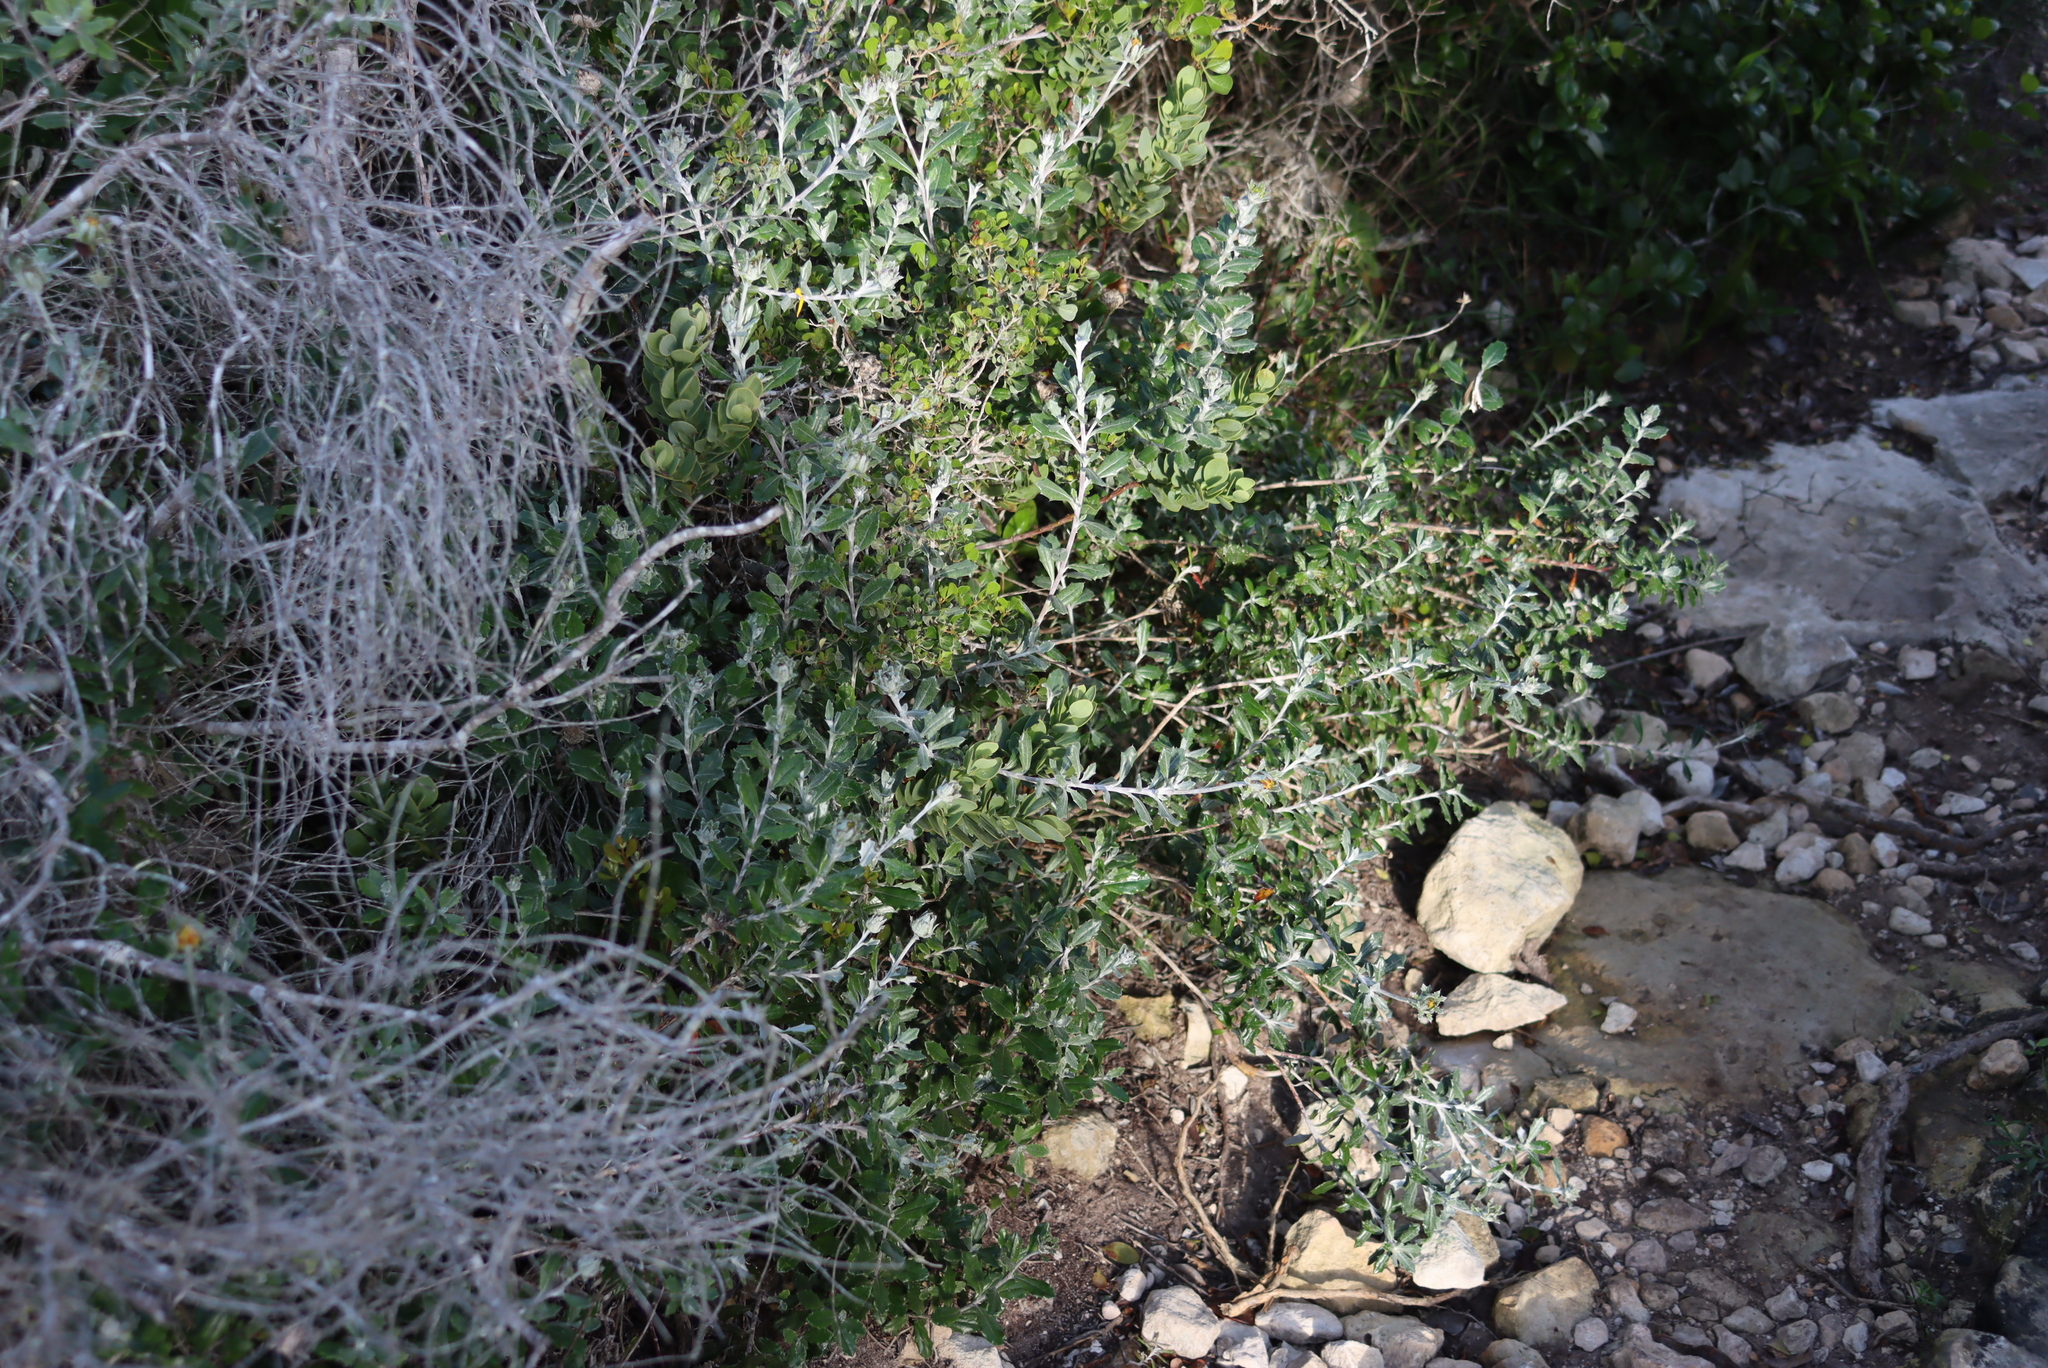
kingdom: Plantae
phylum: Tracheophyta
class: Magnoliopsida
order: Asterales
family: Asteraceae
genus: Berkheya
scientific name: Berkheya coriacea
